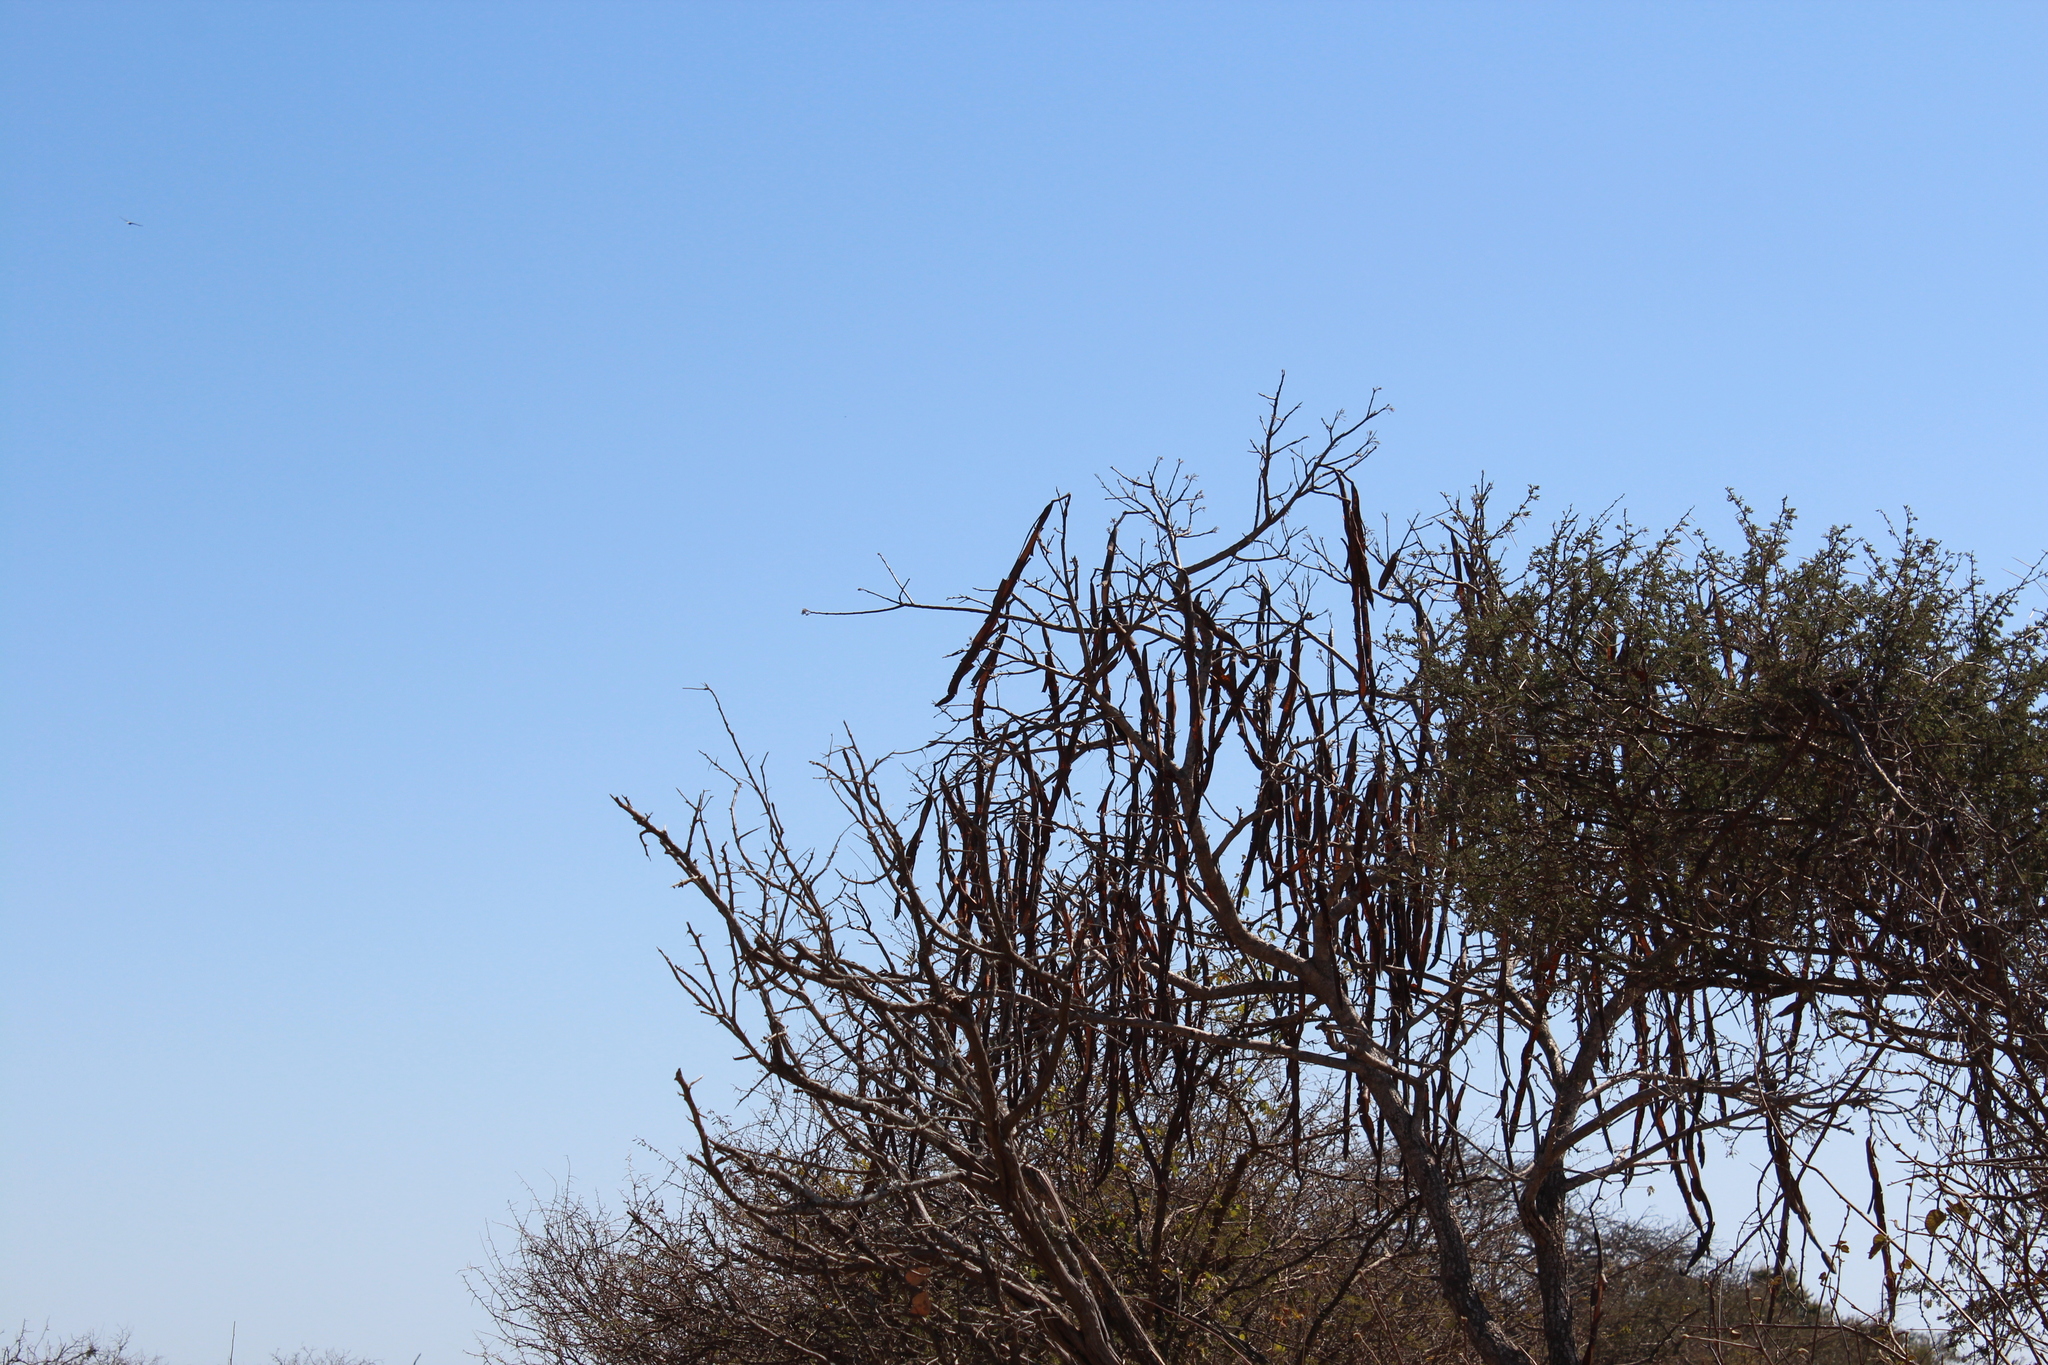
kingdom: Plantae
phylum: Tracheophyta
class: Magnoliopsida
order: Fabales
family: Fabaceae
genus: Cassia
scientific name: Cassia abbreviata
